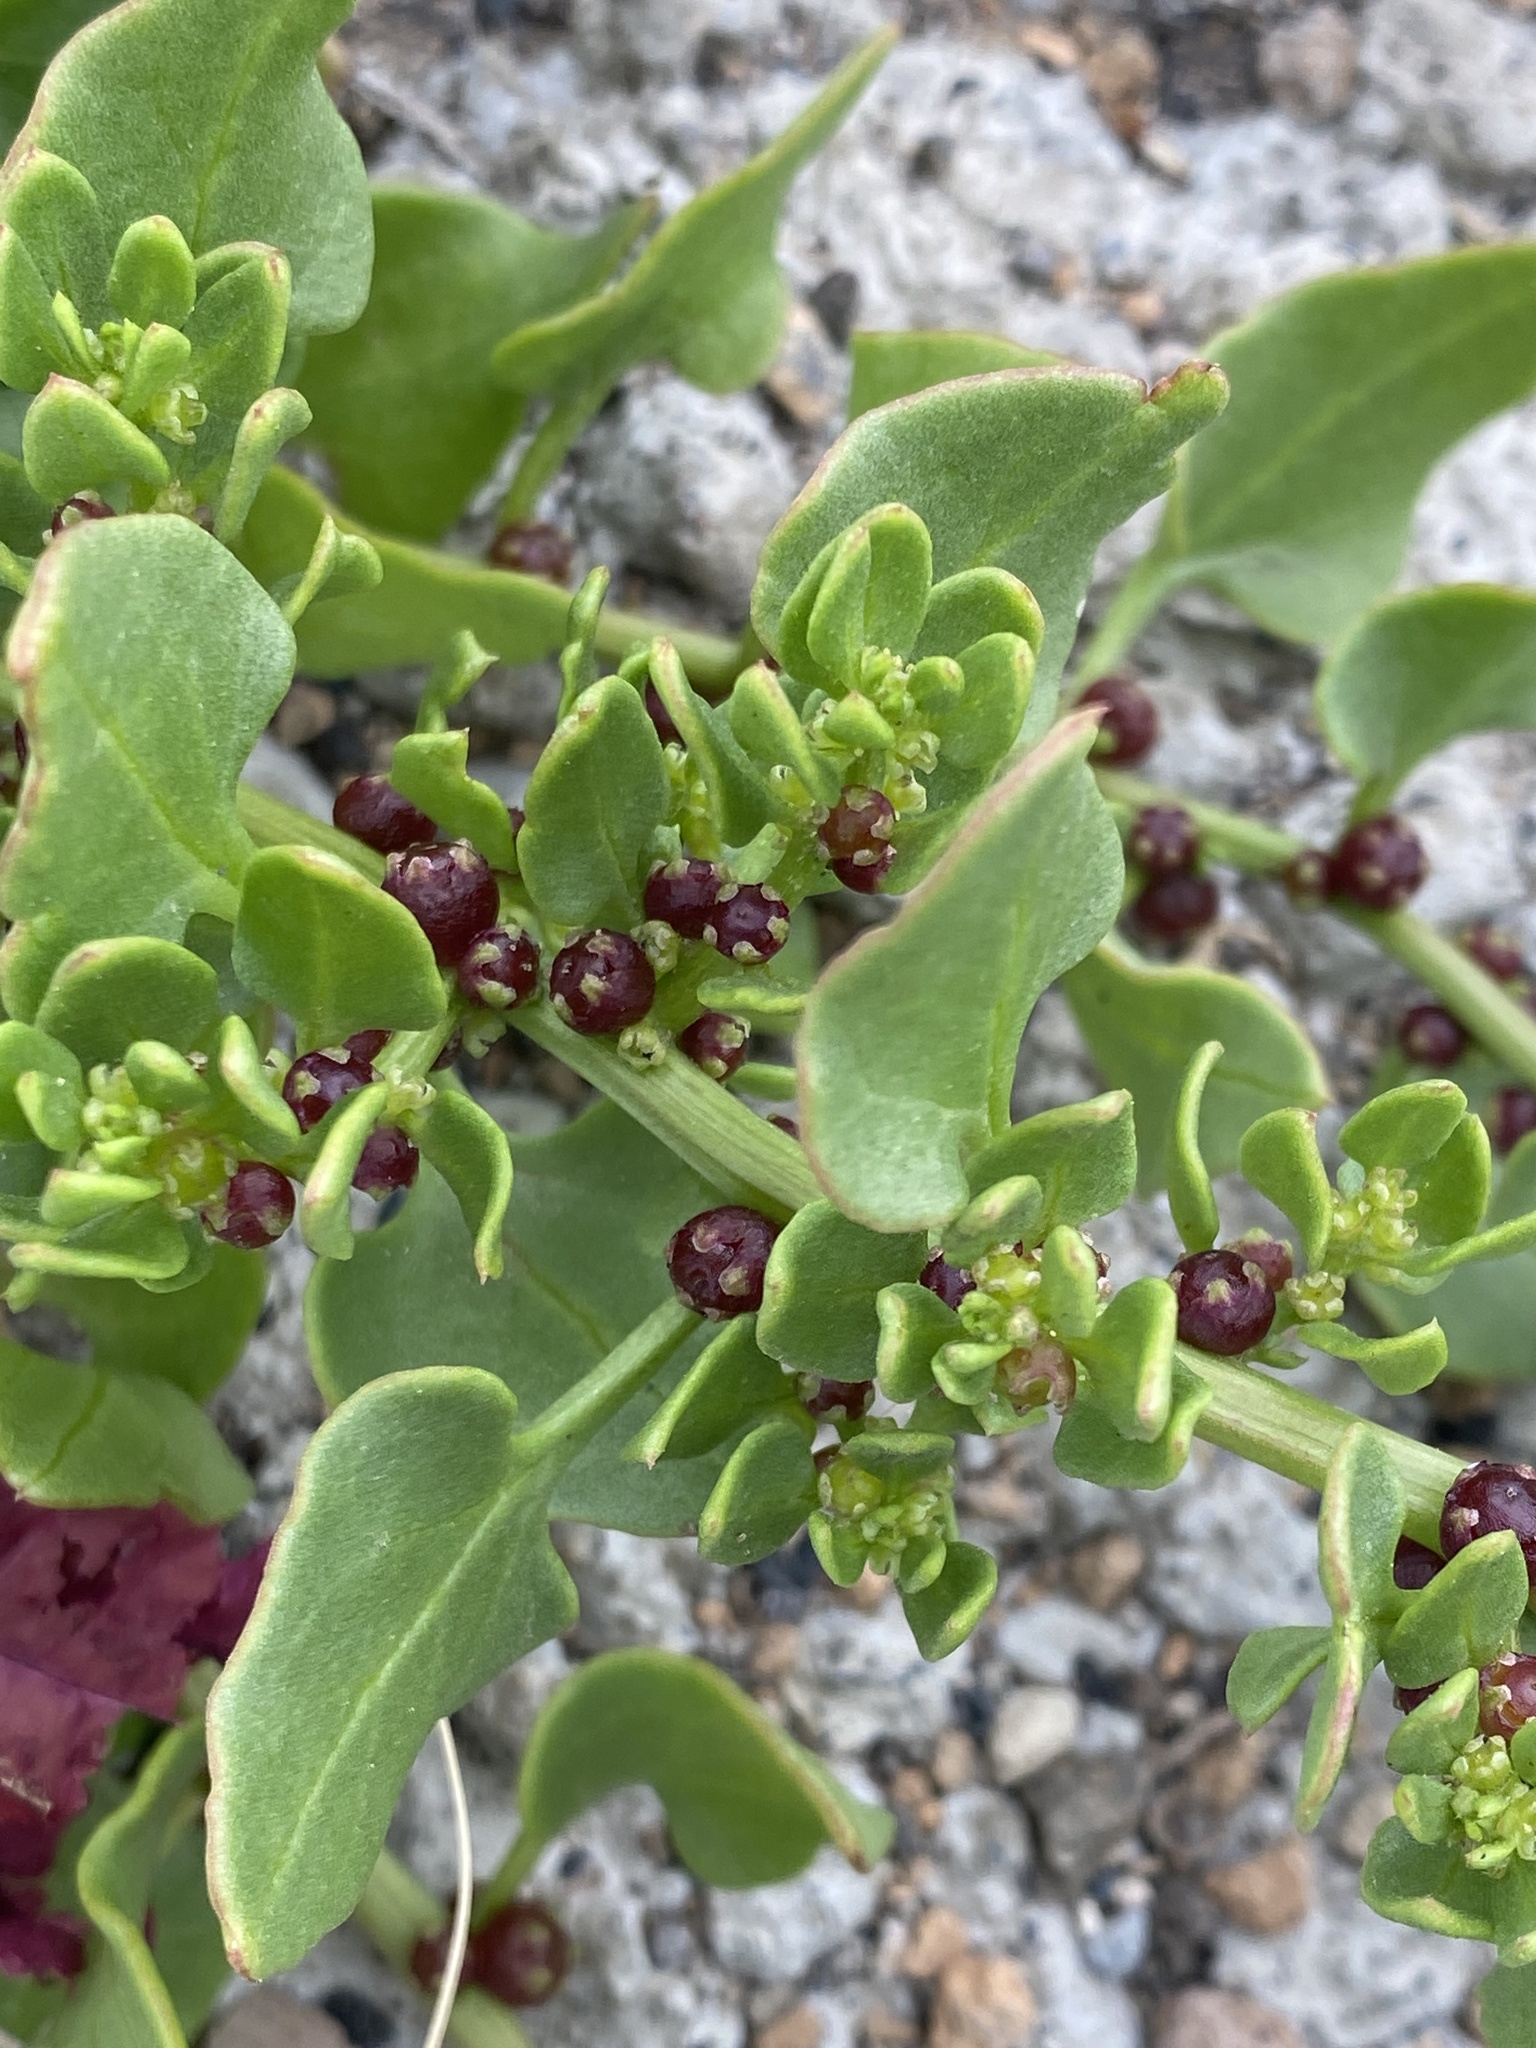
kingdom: Plantae
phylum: Tracheophyta
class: Magnoliopsida
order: Caryophyllales
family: Amaranthaceae
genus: Patellifolia
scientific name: Patellifolia procumbens
